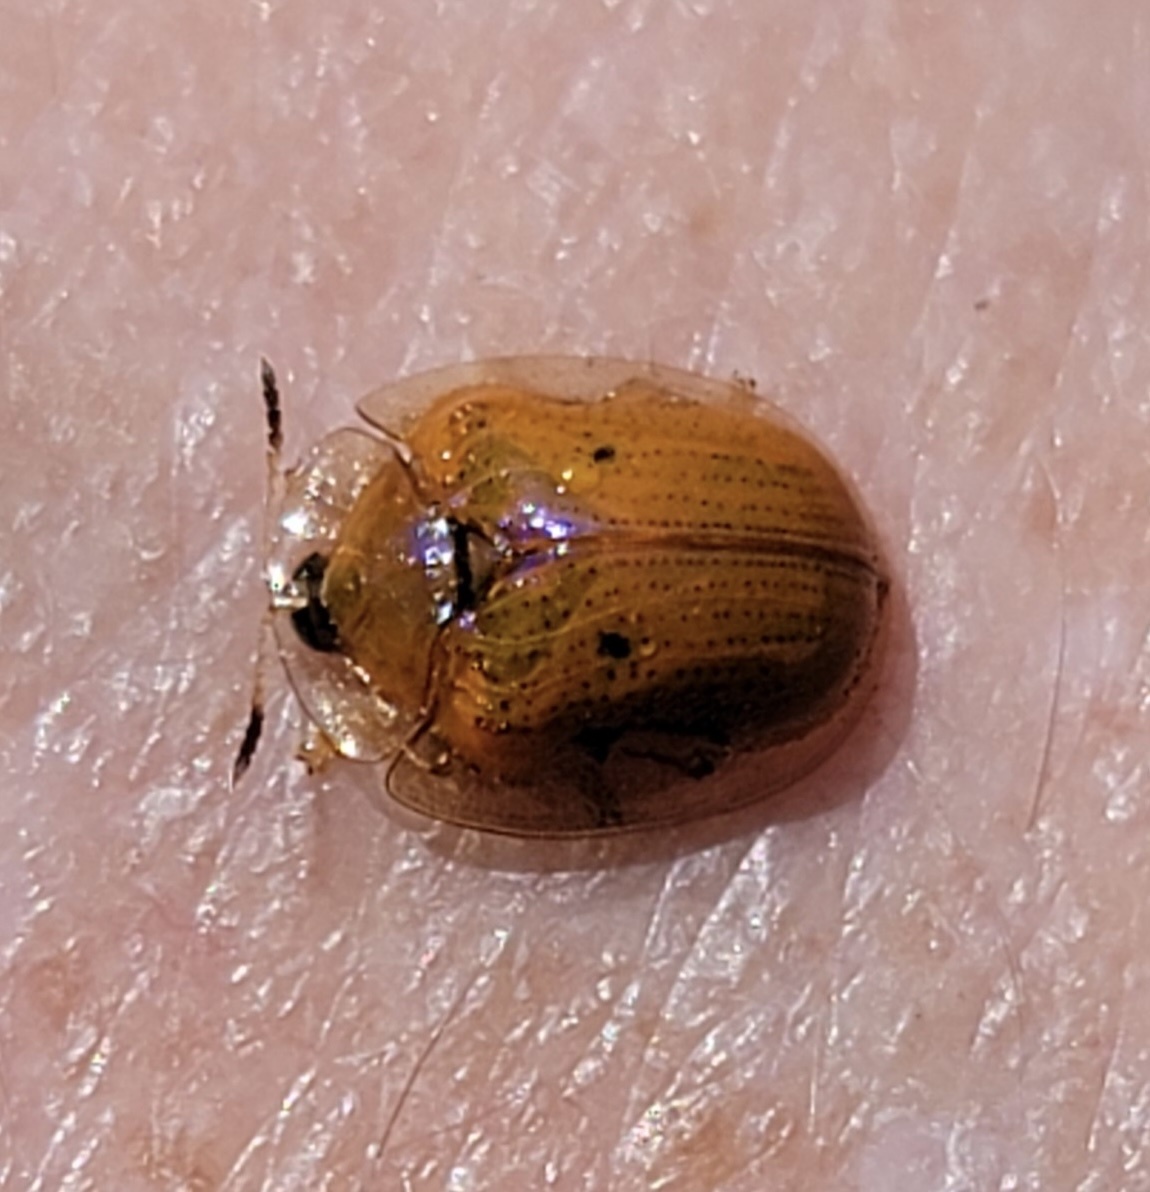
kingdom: Animalia
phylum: Arthropoda
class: Insecta
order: Coleoptera
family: Chrysomelidae
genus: Charidotella
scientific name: Charidotella sexpunctata
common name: Golden tortoise beetle
